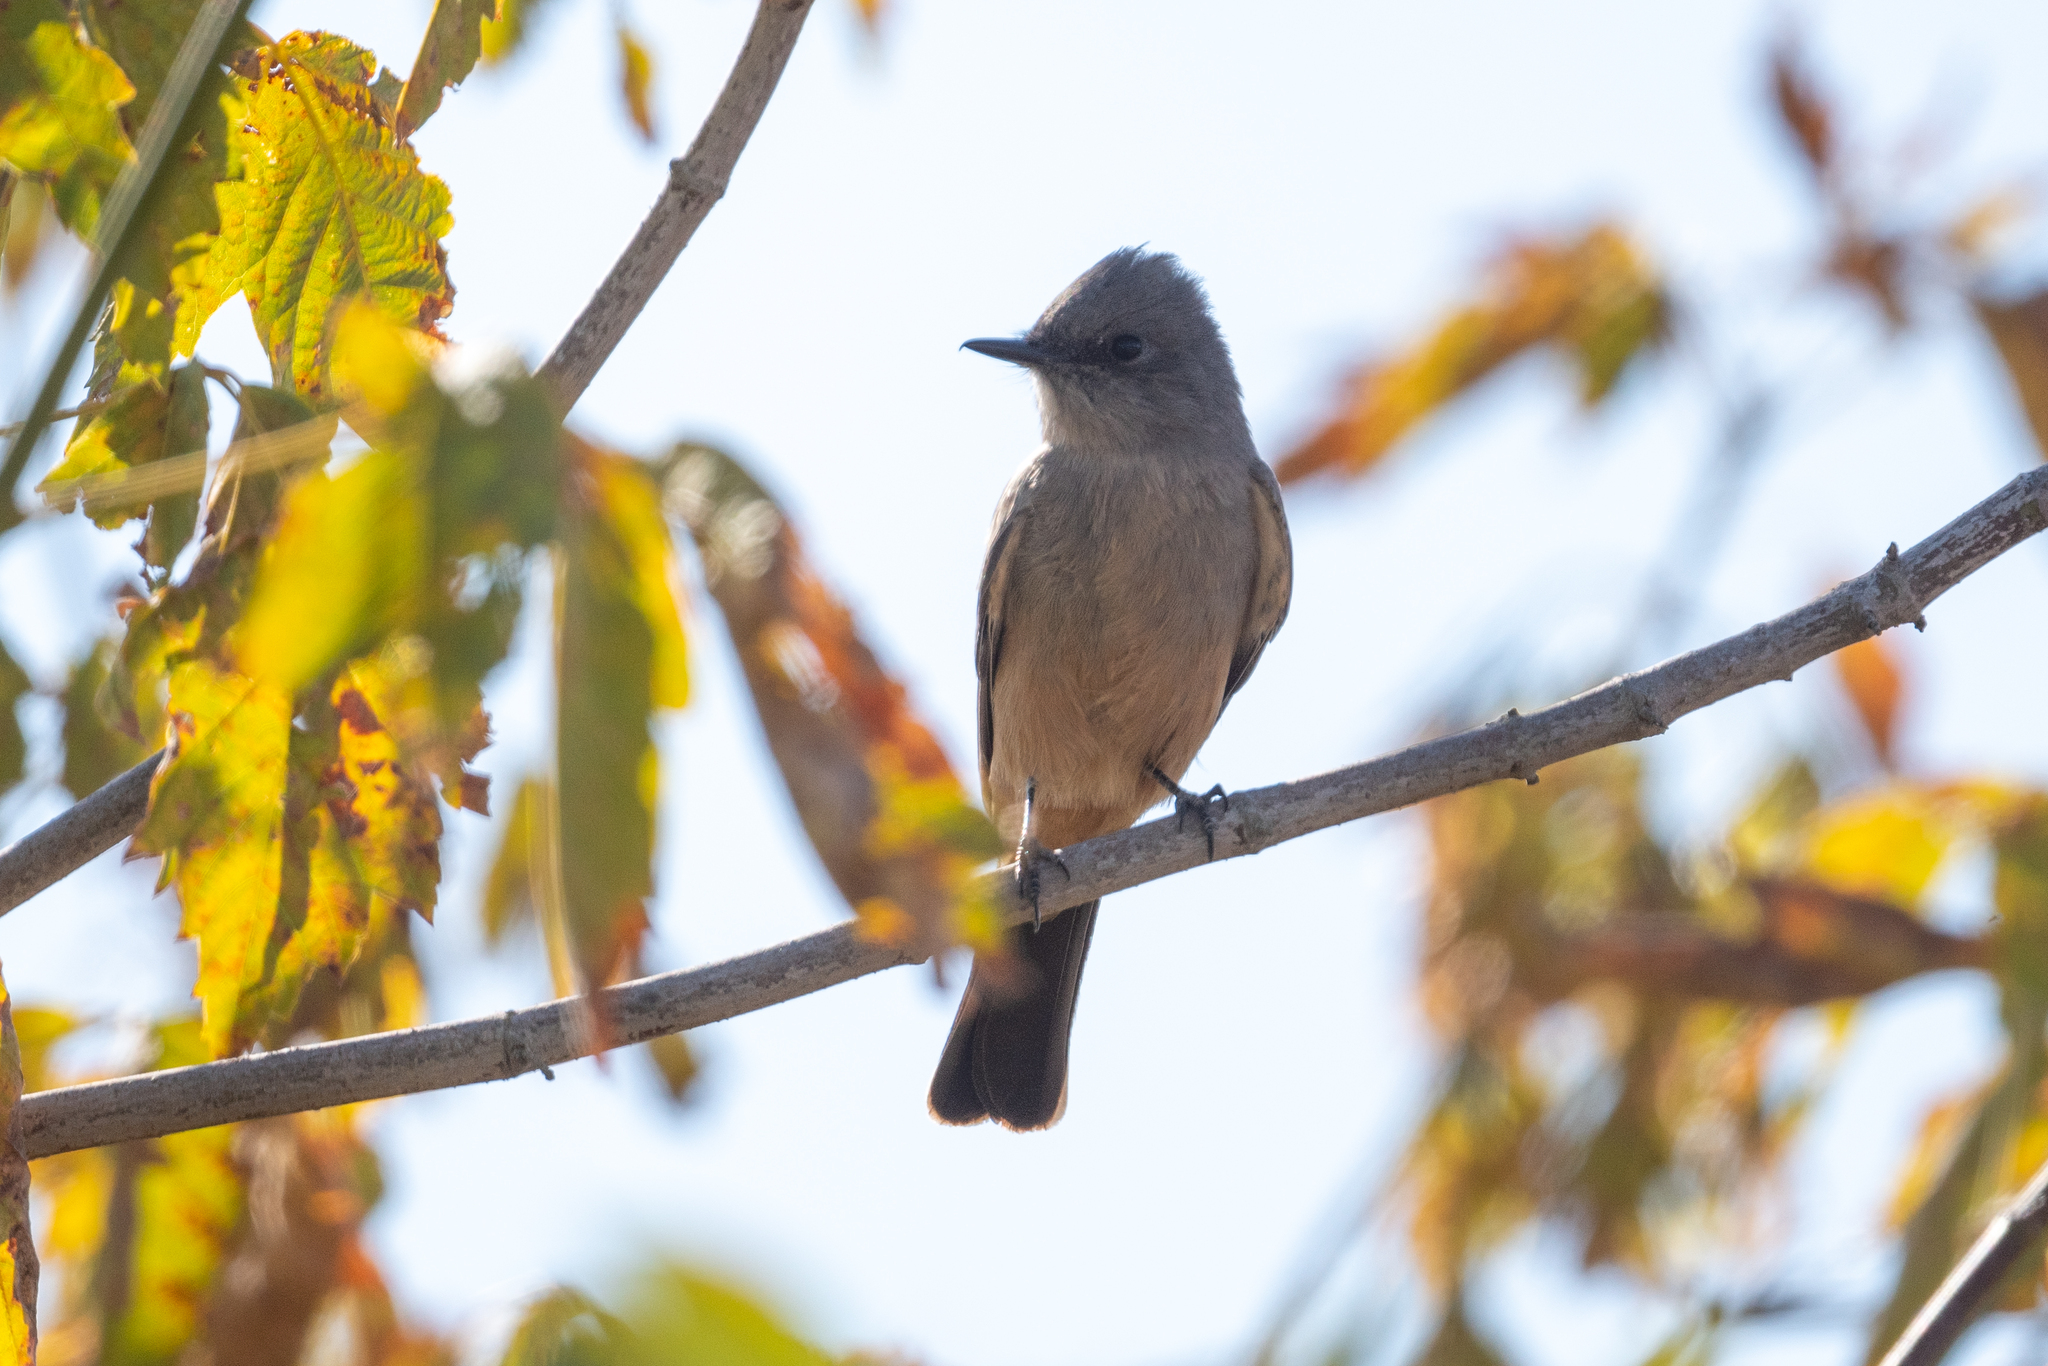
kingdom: Animalia
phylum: Chordata
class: Aves
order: Passeriformes
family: Tyrannidae
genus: Sayornis
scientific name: Sayornis saya
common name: Say's phoebe
